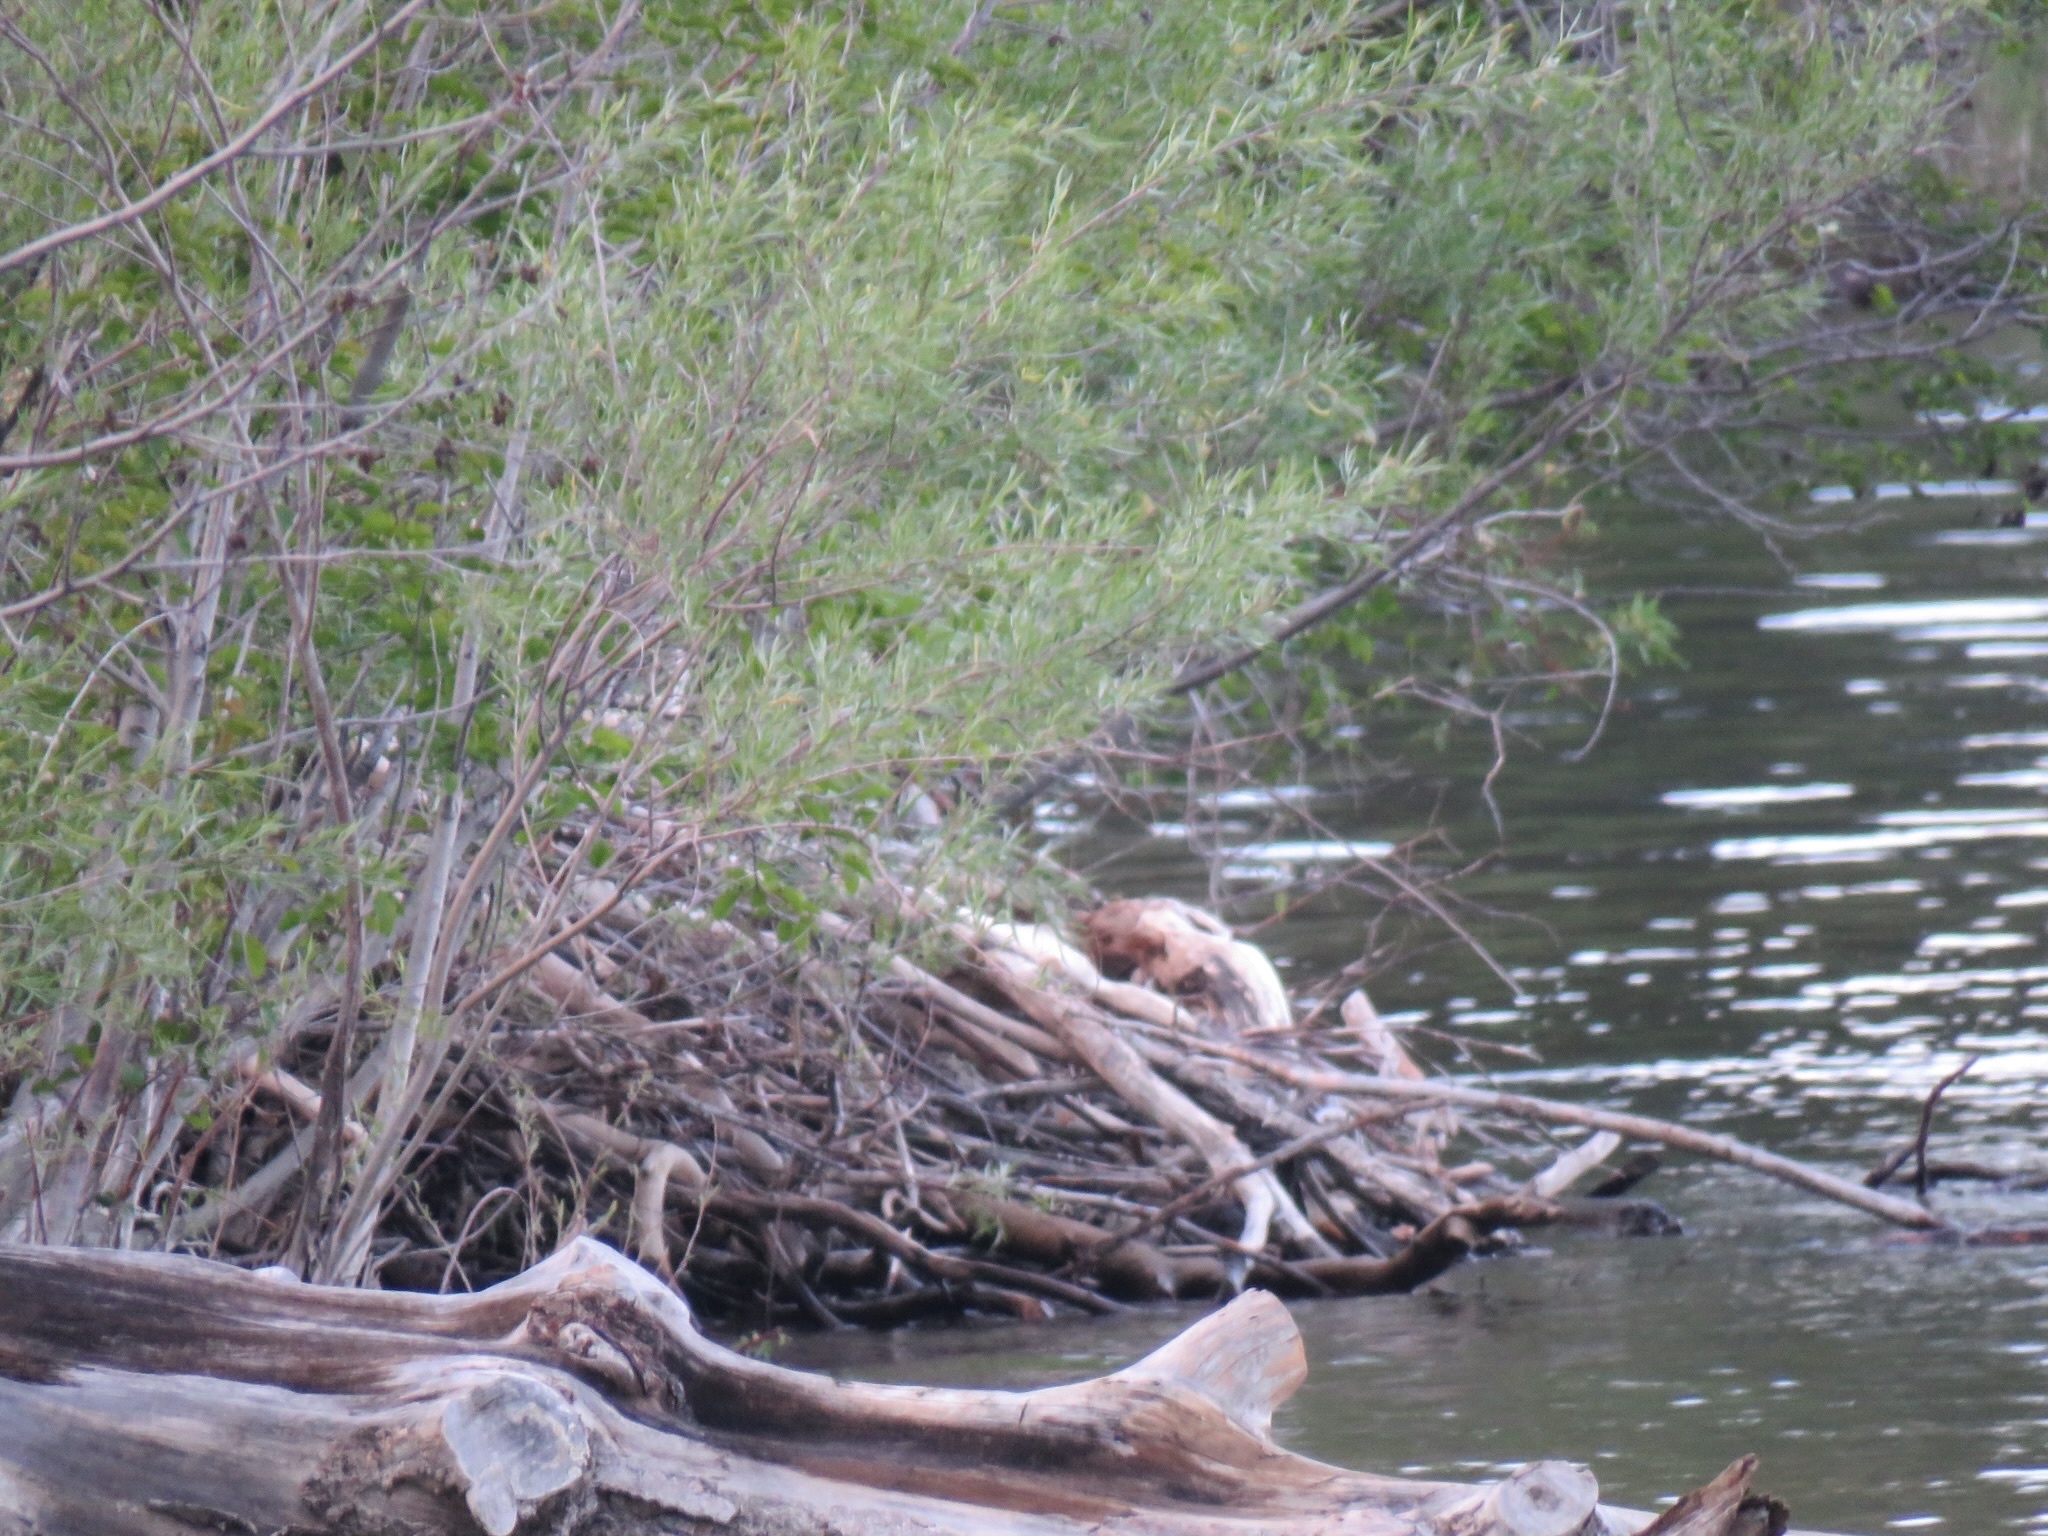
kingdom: Animalia
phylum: Chordata
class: Mammalia
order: Rodentia
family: Castoridae
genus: Castor
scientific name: Castor canadensis
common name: American beaver
